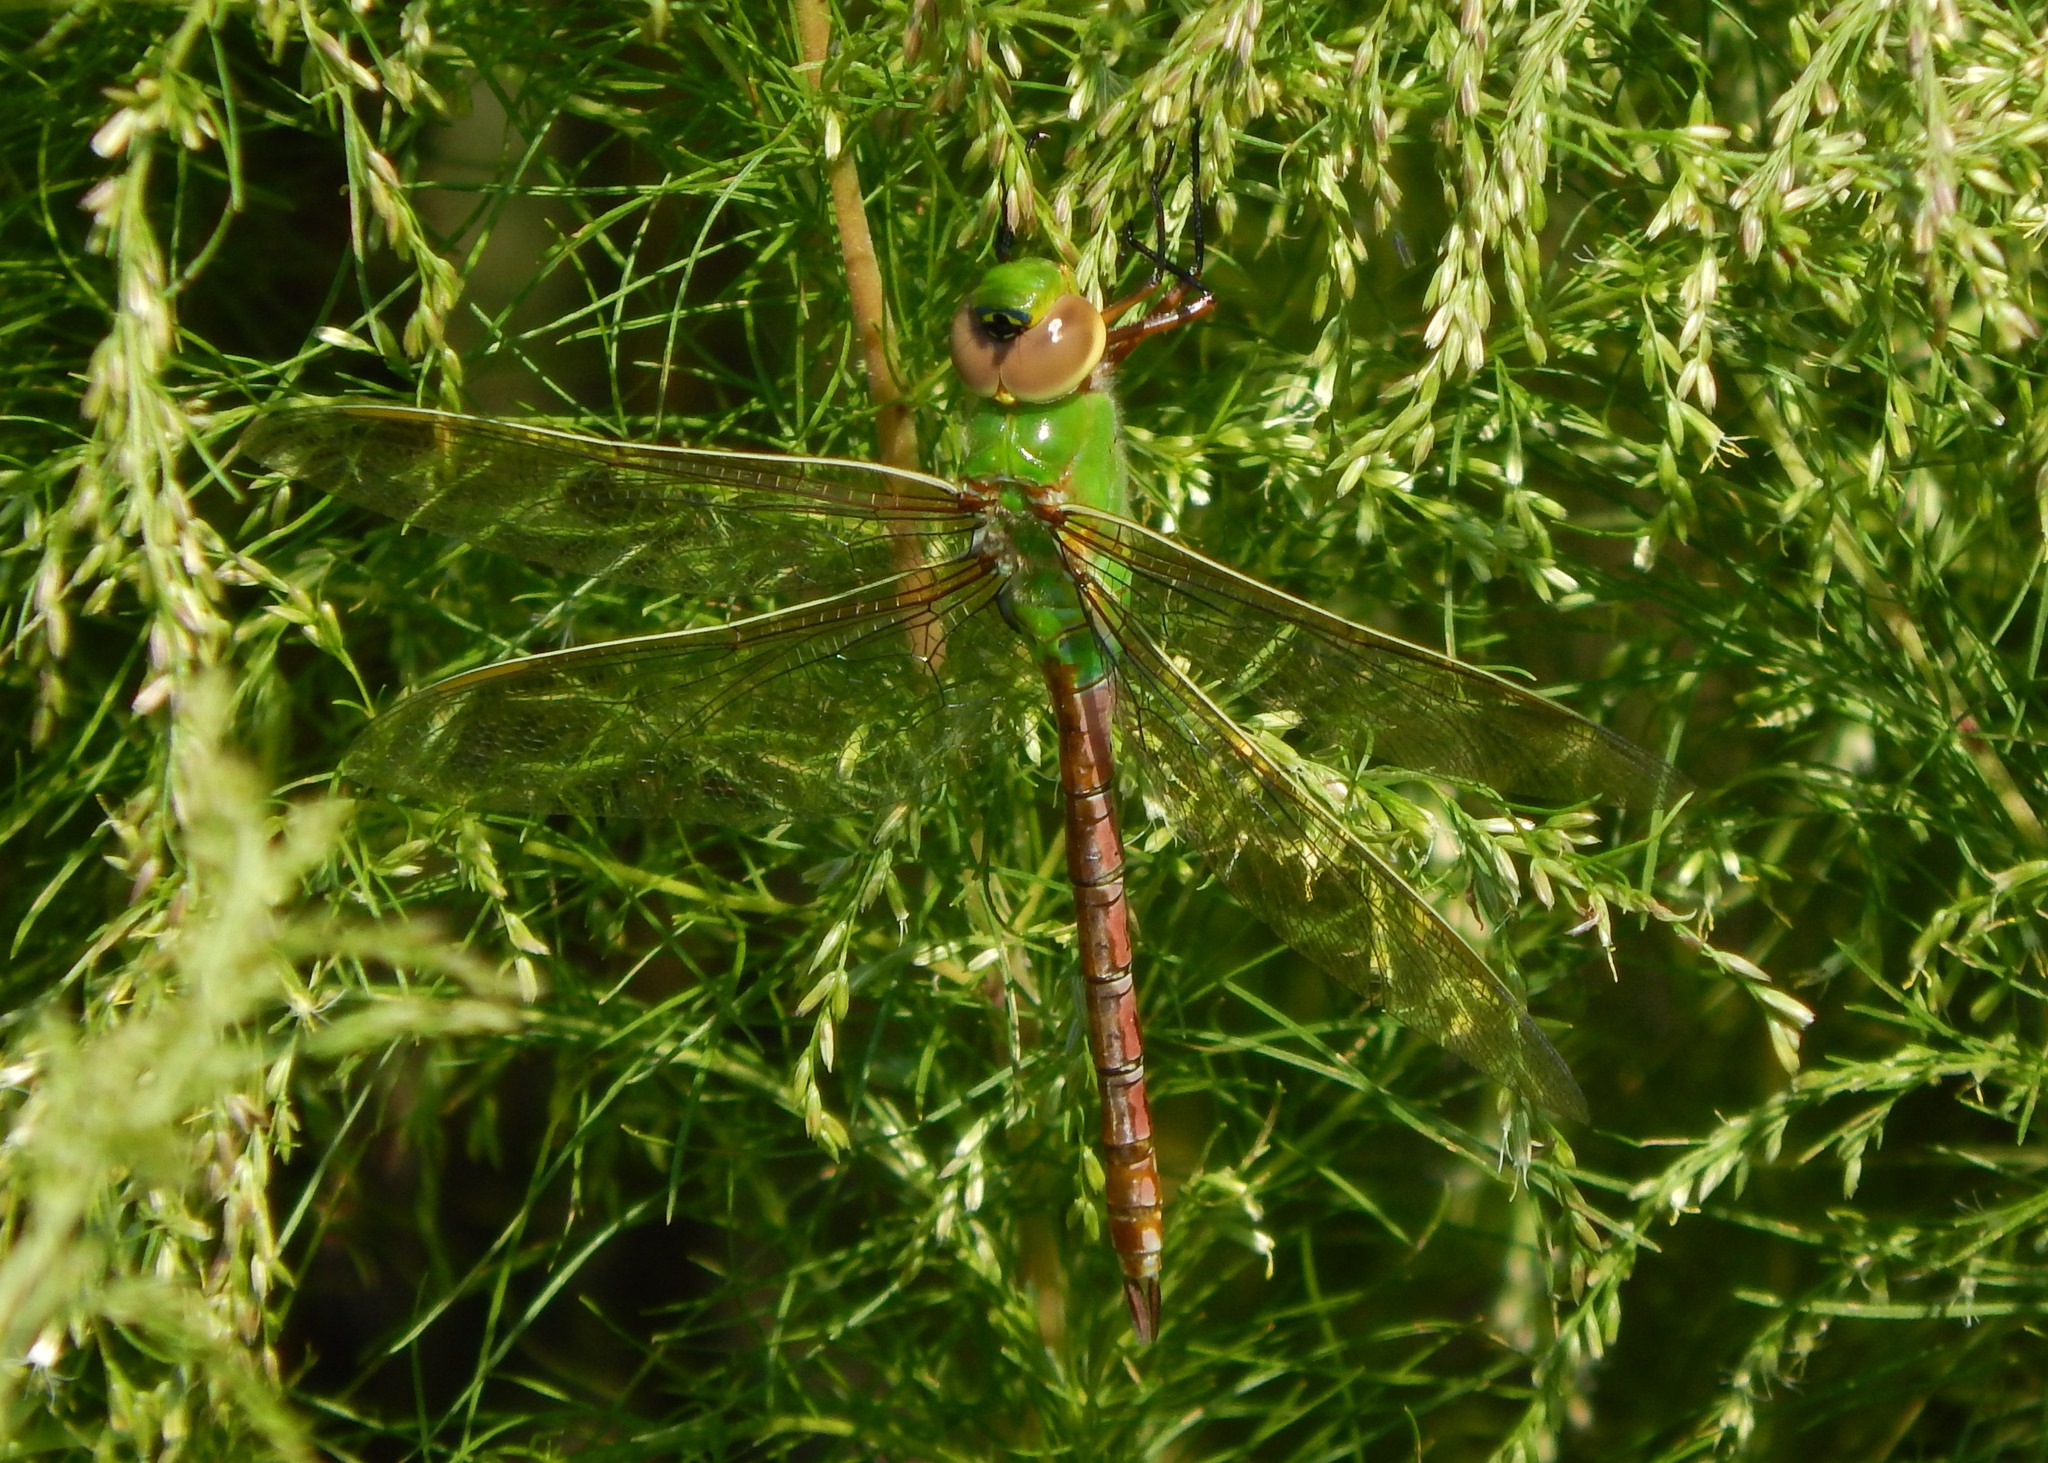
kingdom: Animalia
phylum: Arthropoda
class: Insecta
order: Odonata
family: Aeshnidae
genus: Anax
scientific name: Anax junius
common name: Common green darner
